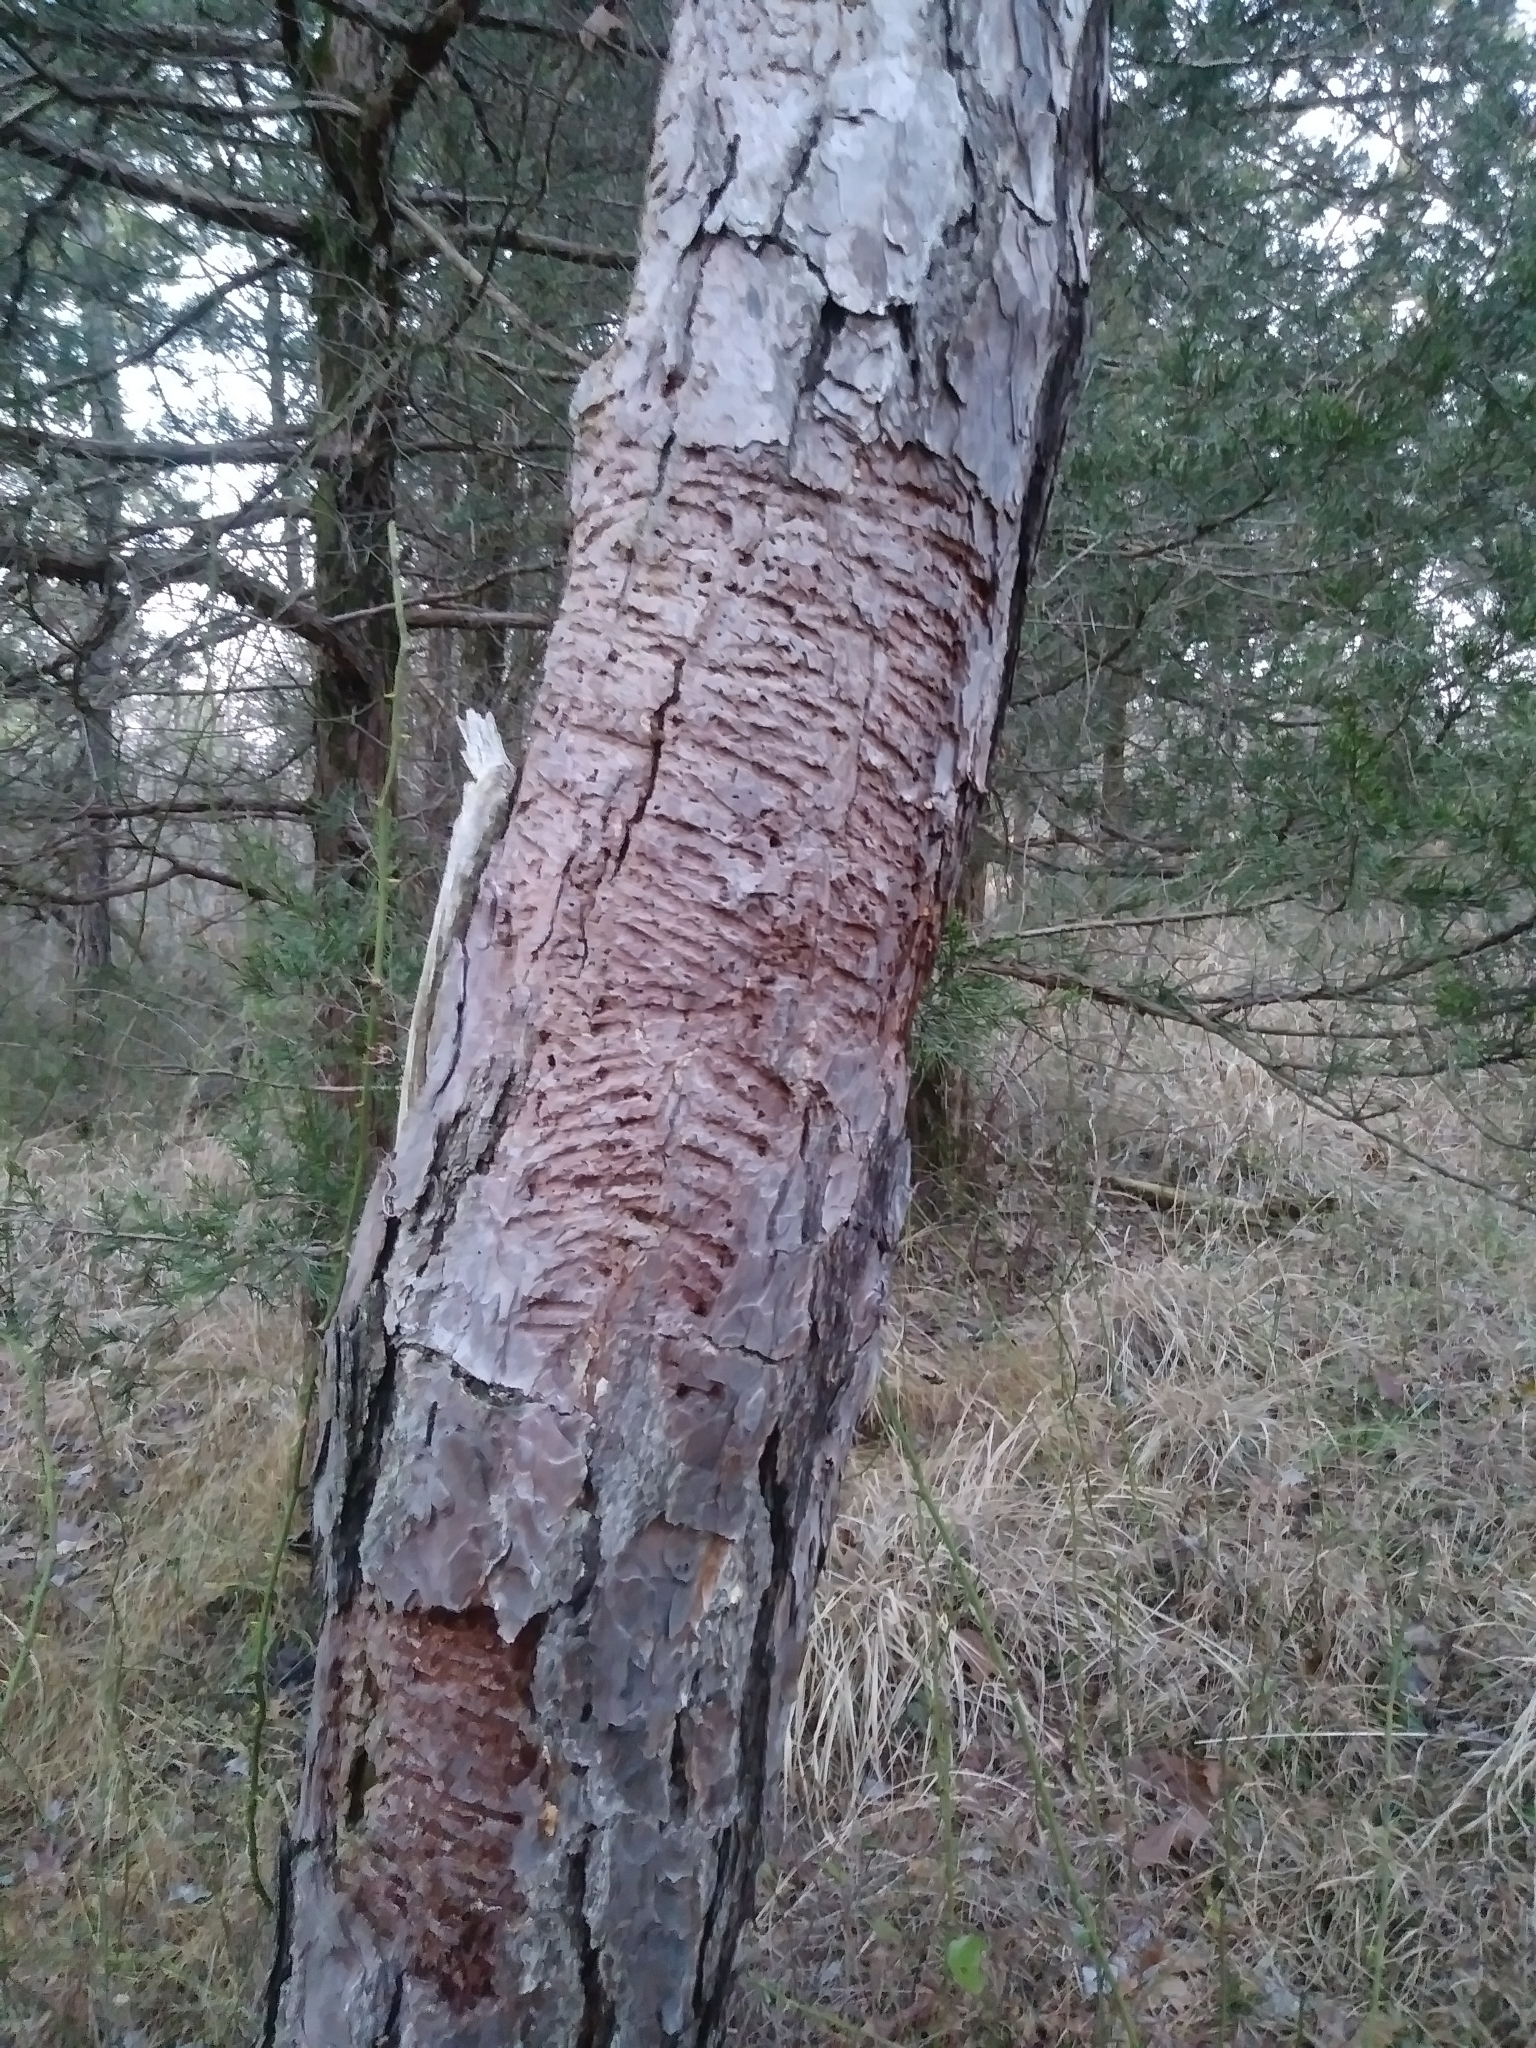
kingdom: Animalia
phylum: Arthropoda
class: Insecta
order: Coleoptera
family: Curculionidae
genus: Dendroctonus
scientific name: Dendroctonus frontalis
